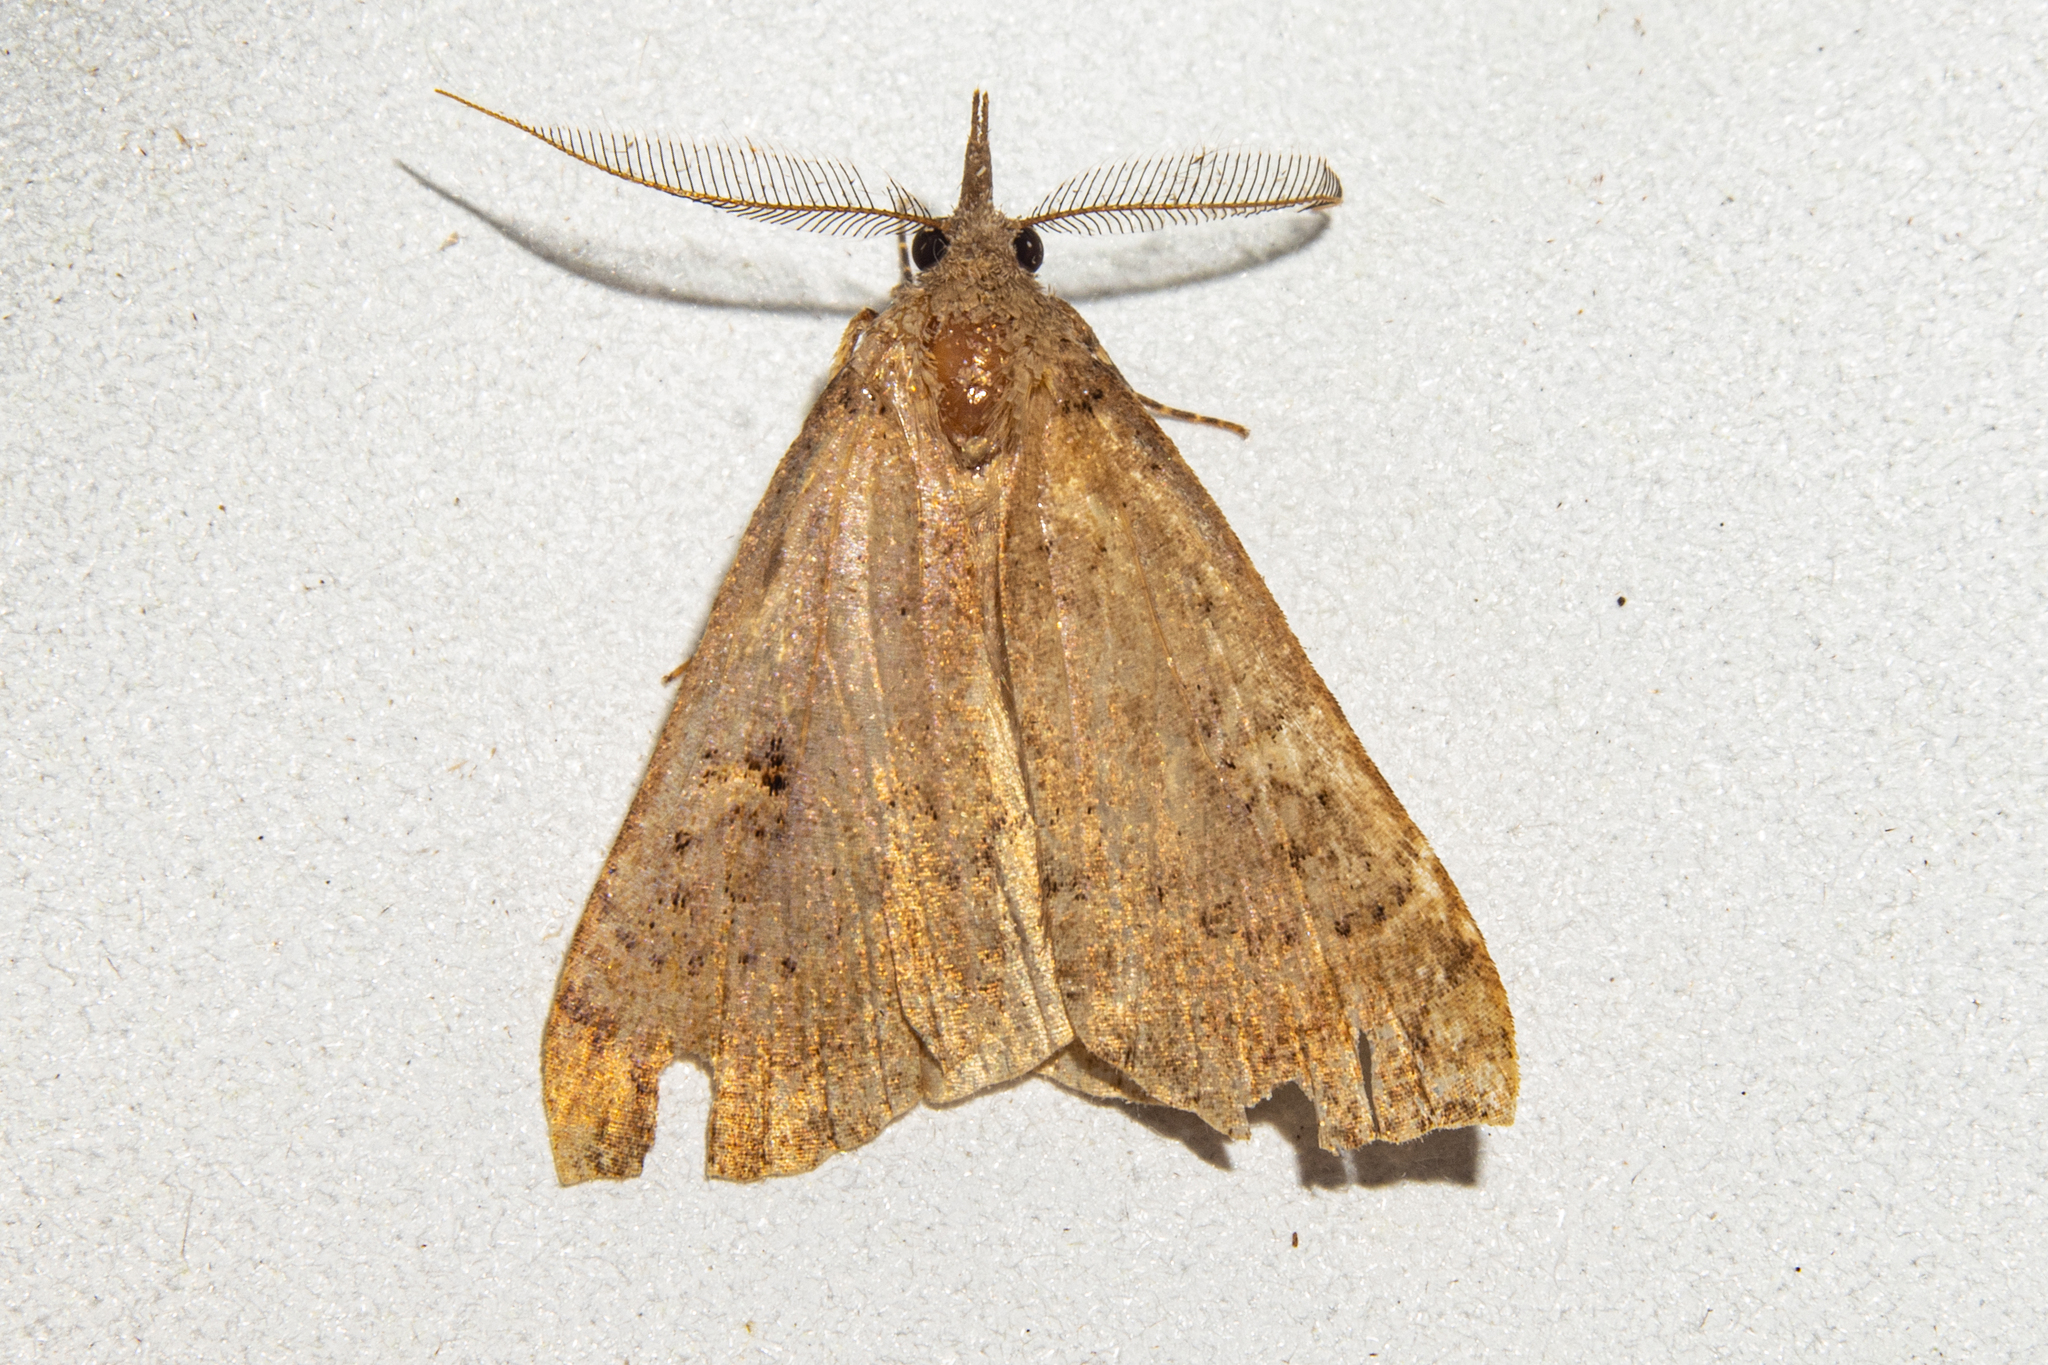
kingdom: Animalia
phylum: Arthropoda
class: Insecta
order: Lepidoptera
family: Erebidae
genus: Rhapsa
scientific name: Rhapsa scotosialis
